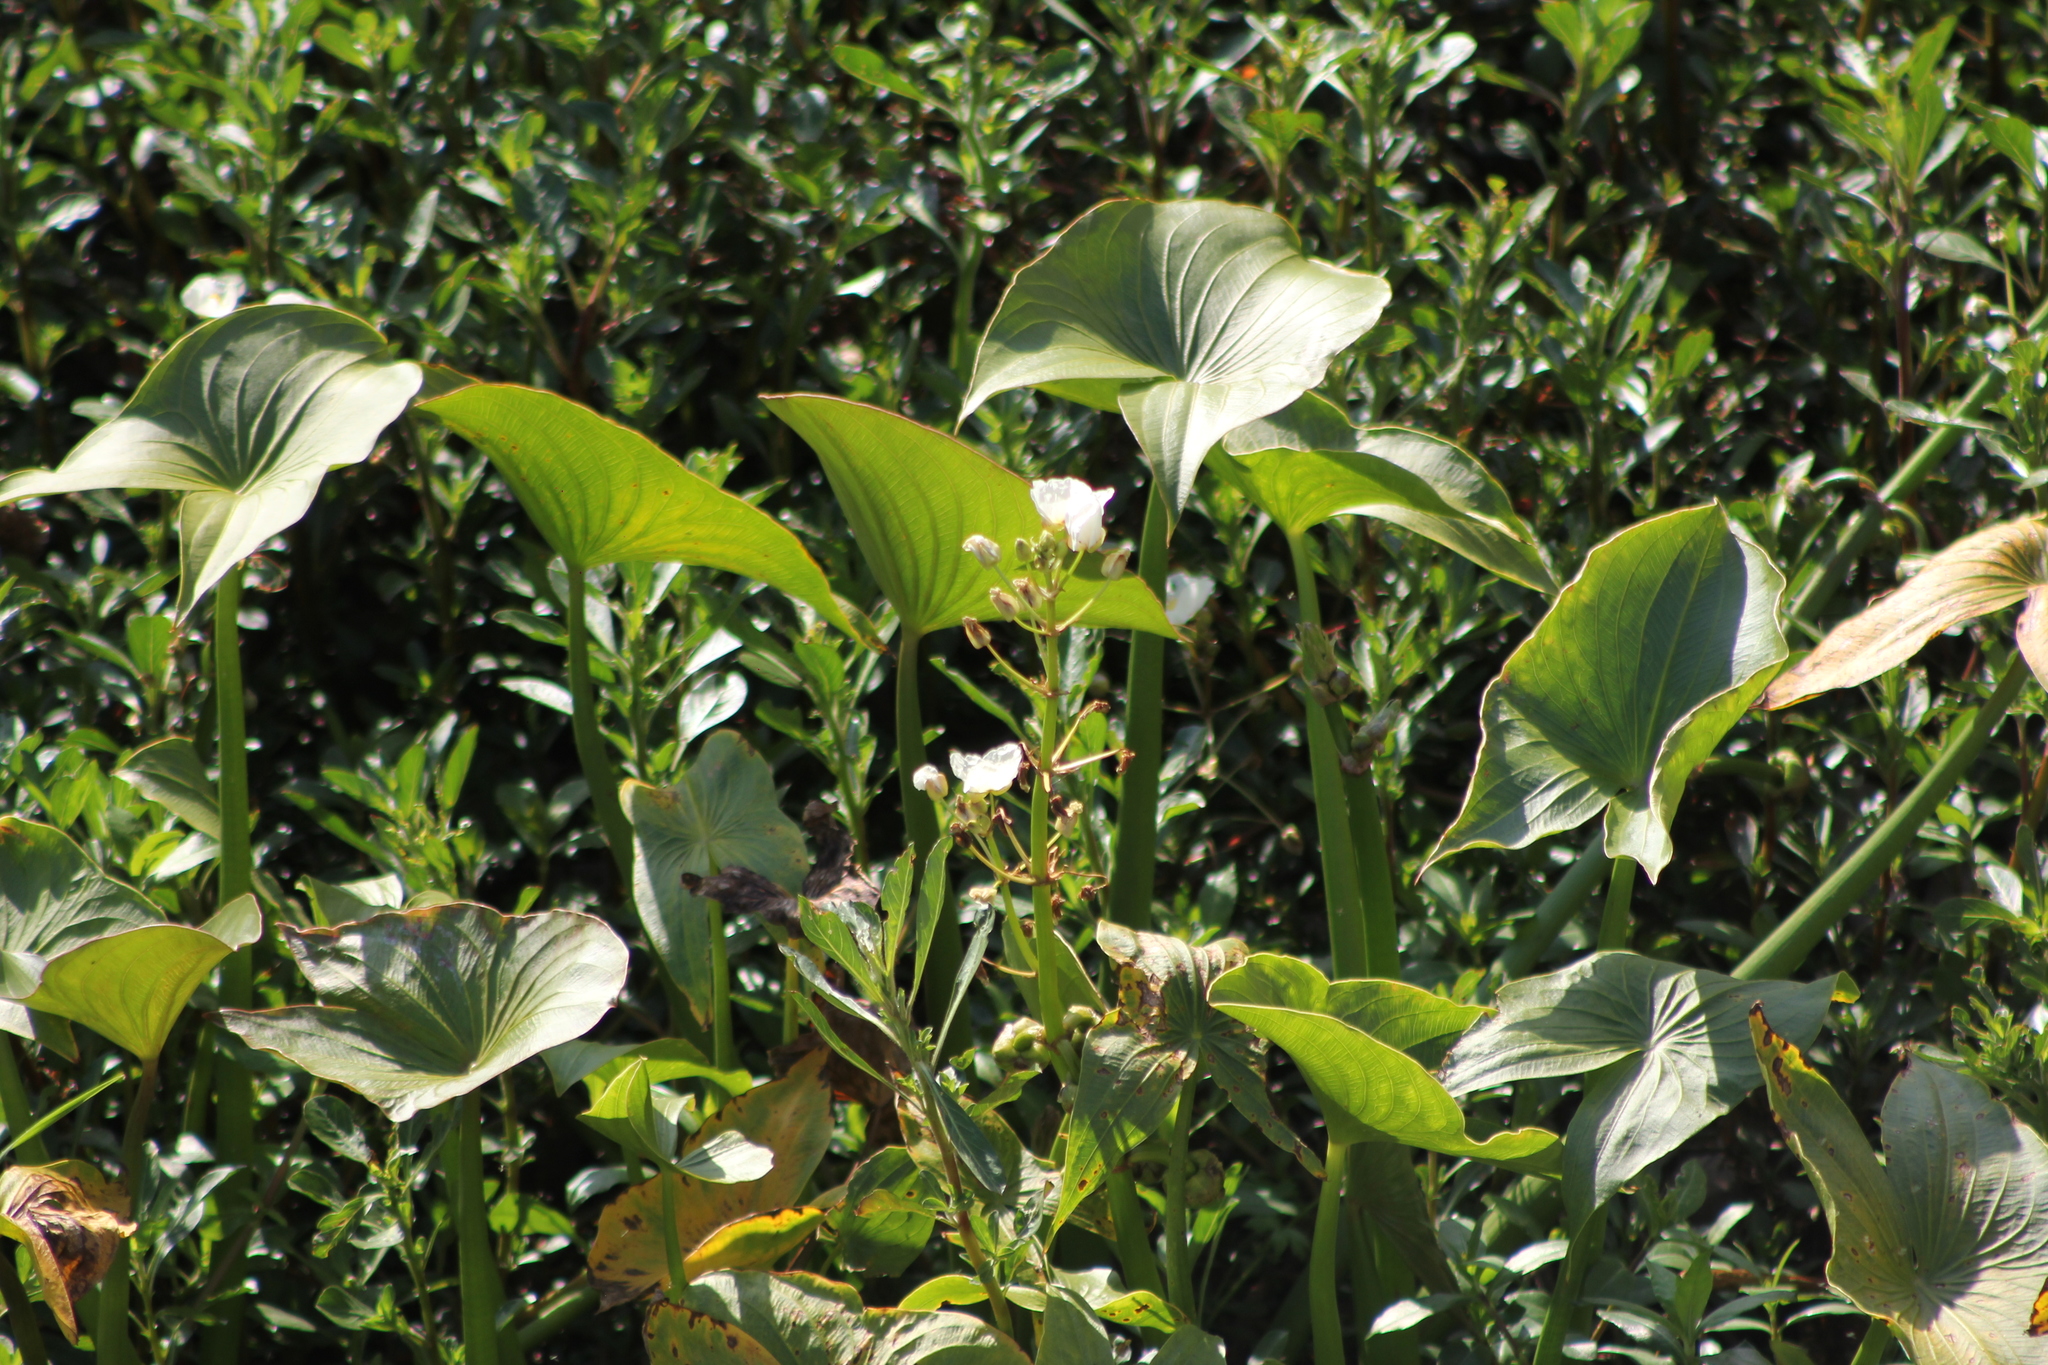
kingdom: Plantae
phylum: Tracheophyta
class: Liliopsida
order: Alismatales
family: Alismataceae
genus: Sagittaria
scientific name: Sagittaria montevidensis
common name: Giant arrowhead
